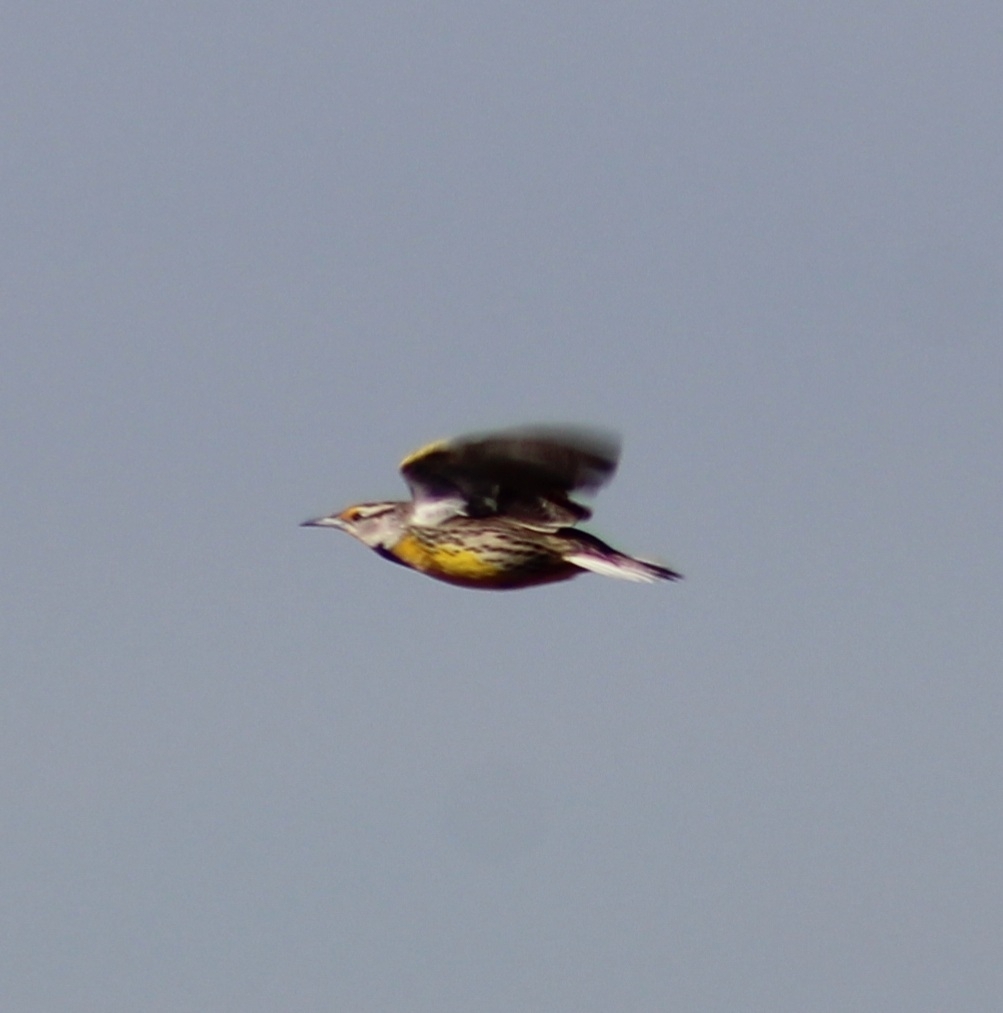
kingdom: Animalia
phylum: Chordata
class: Aves
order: Passeriformes
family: Icteridae
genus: Sturnella
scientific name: Sturnella magna
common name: Eastern meadowlark
